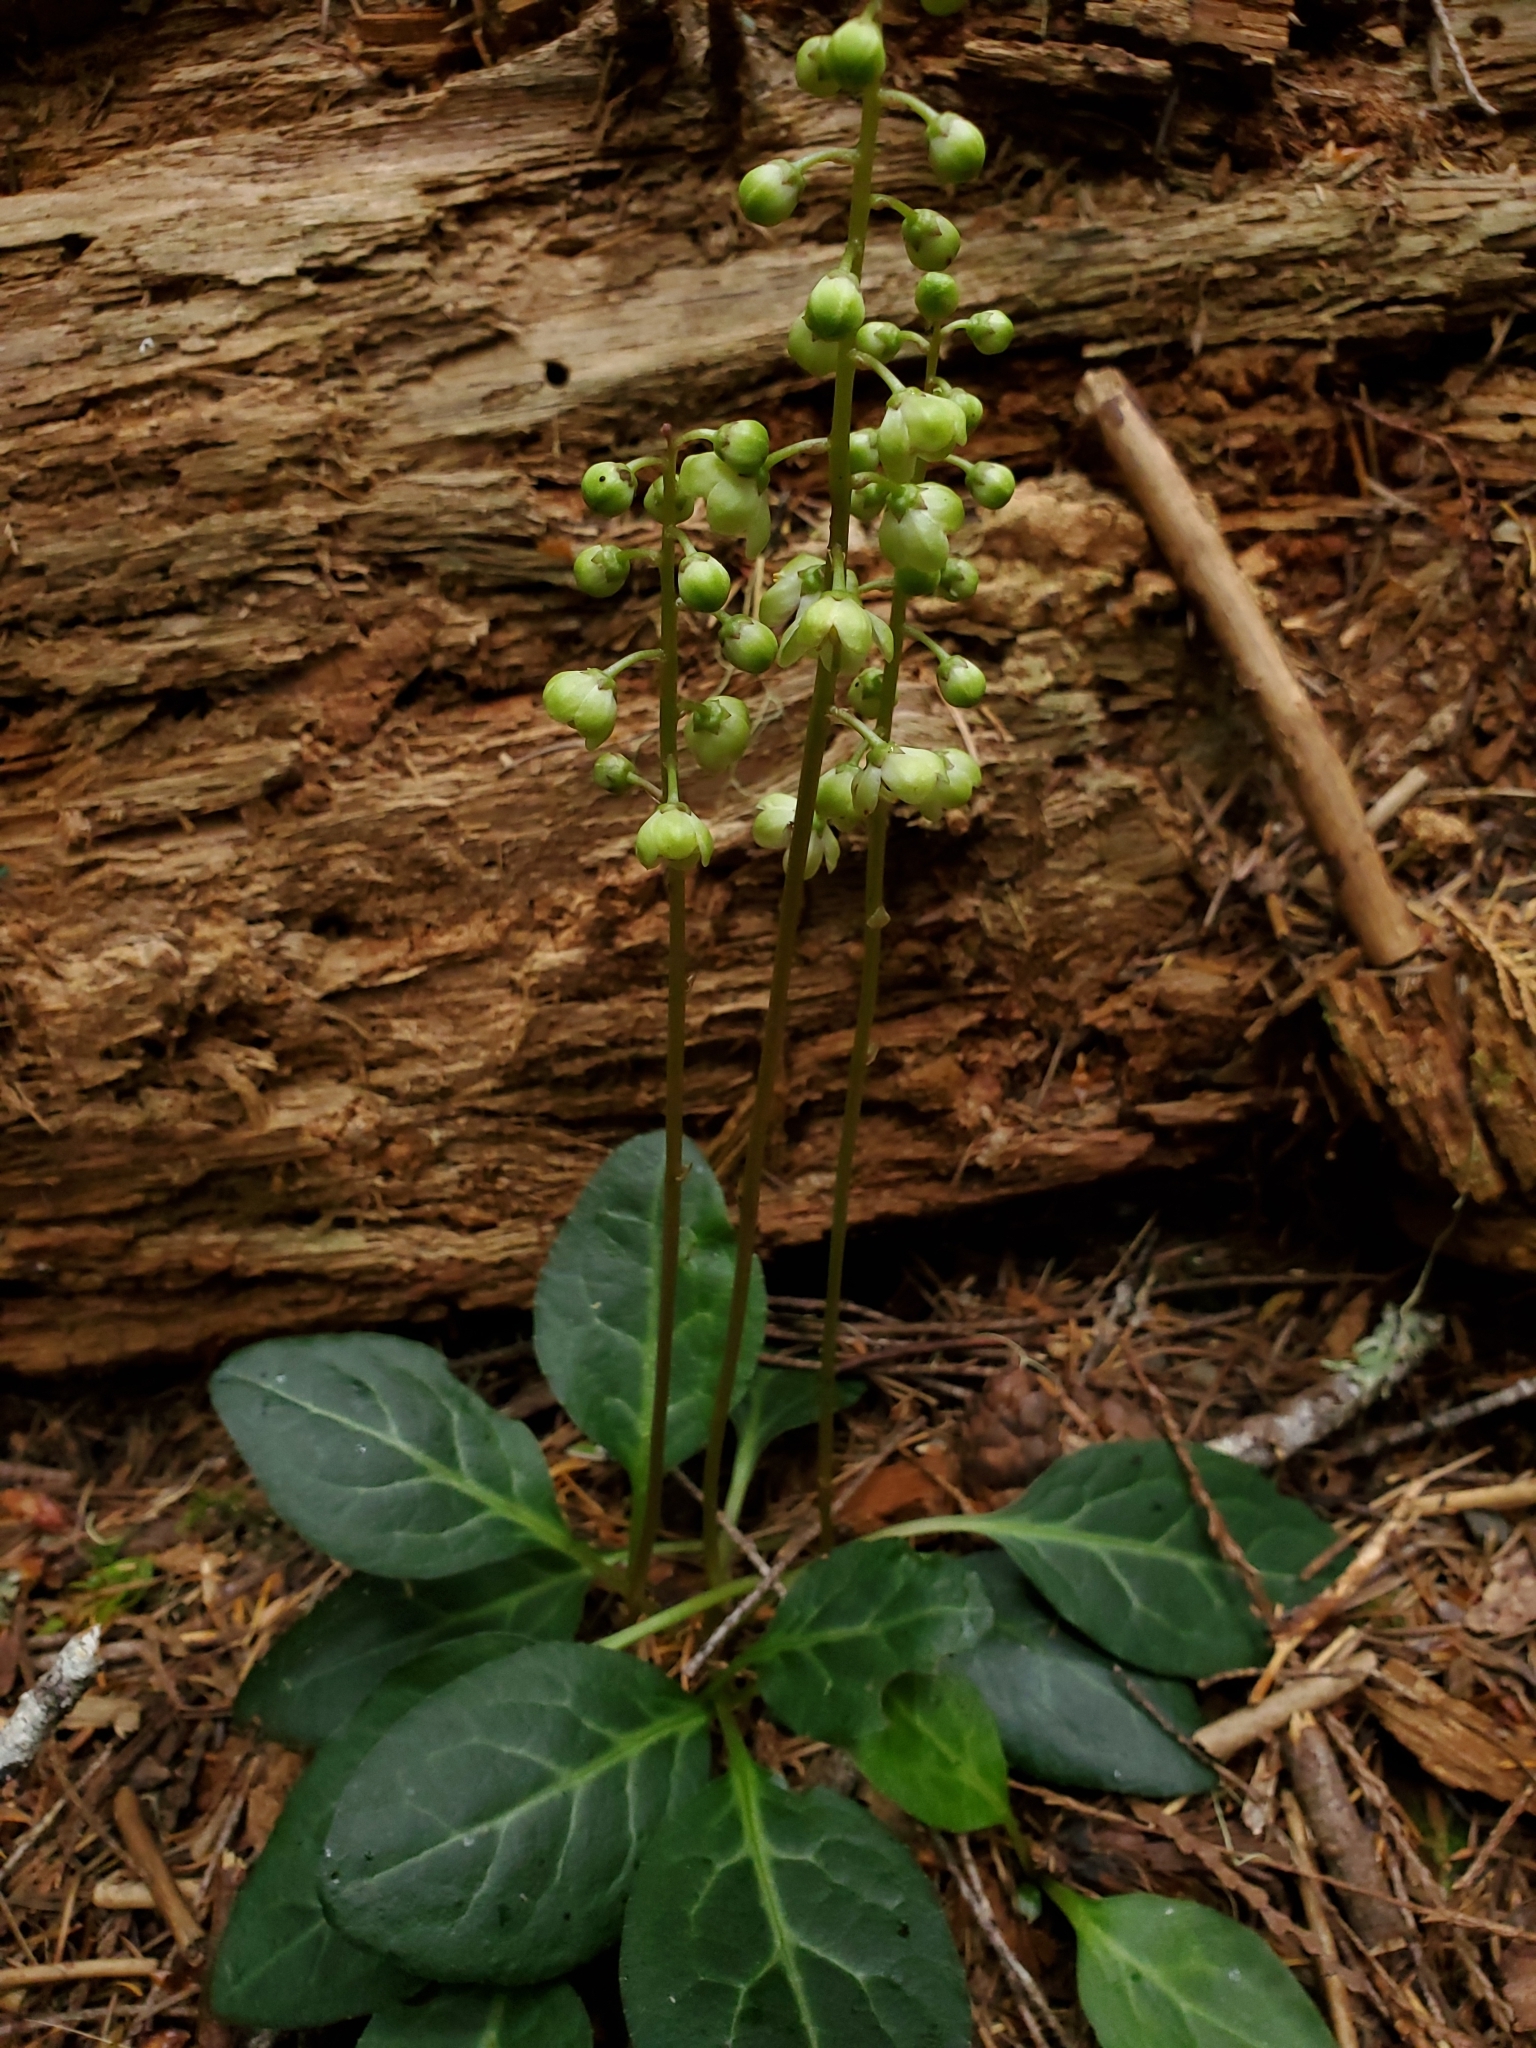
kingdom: Plantae
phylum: Tracheophyta
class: Magnoliopsida
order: Ericales
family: Ericaceae
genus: Pyrola
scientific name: Pyrola picta
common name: White-vein wintergreen
